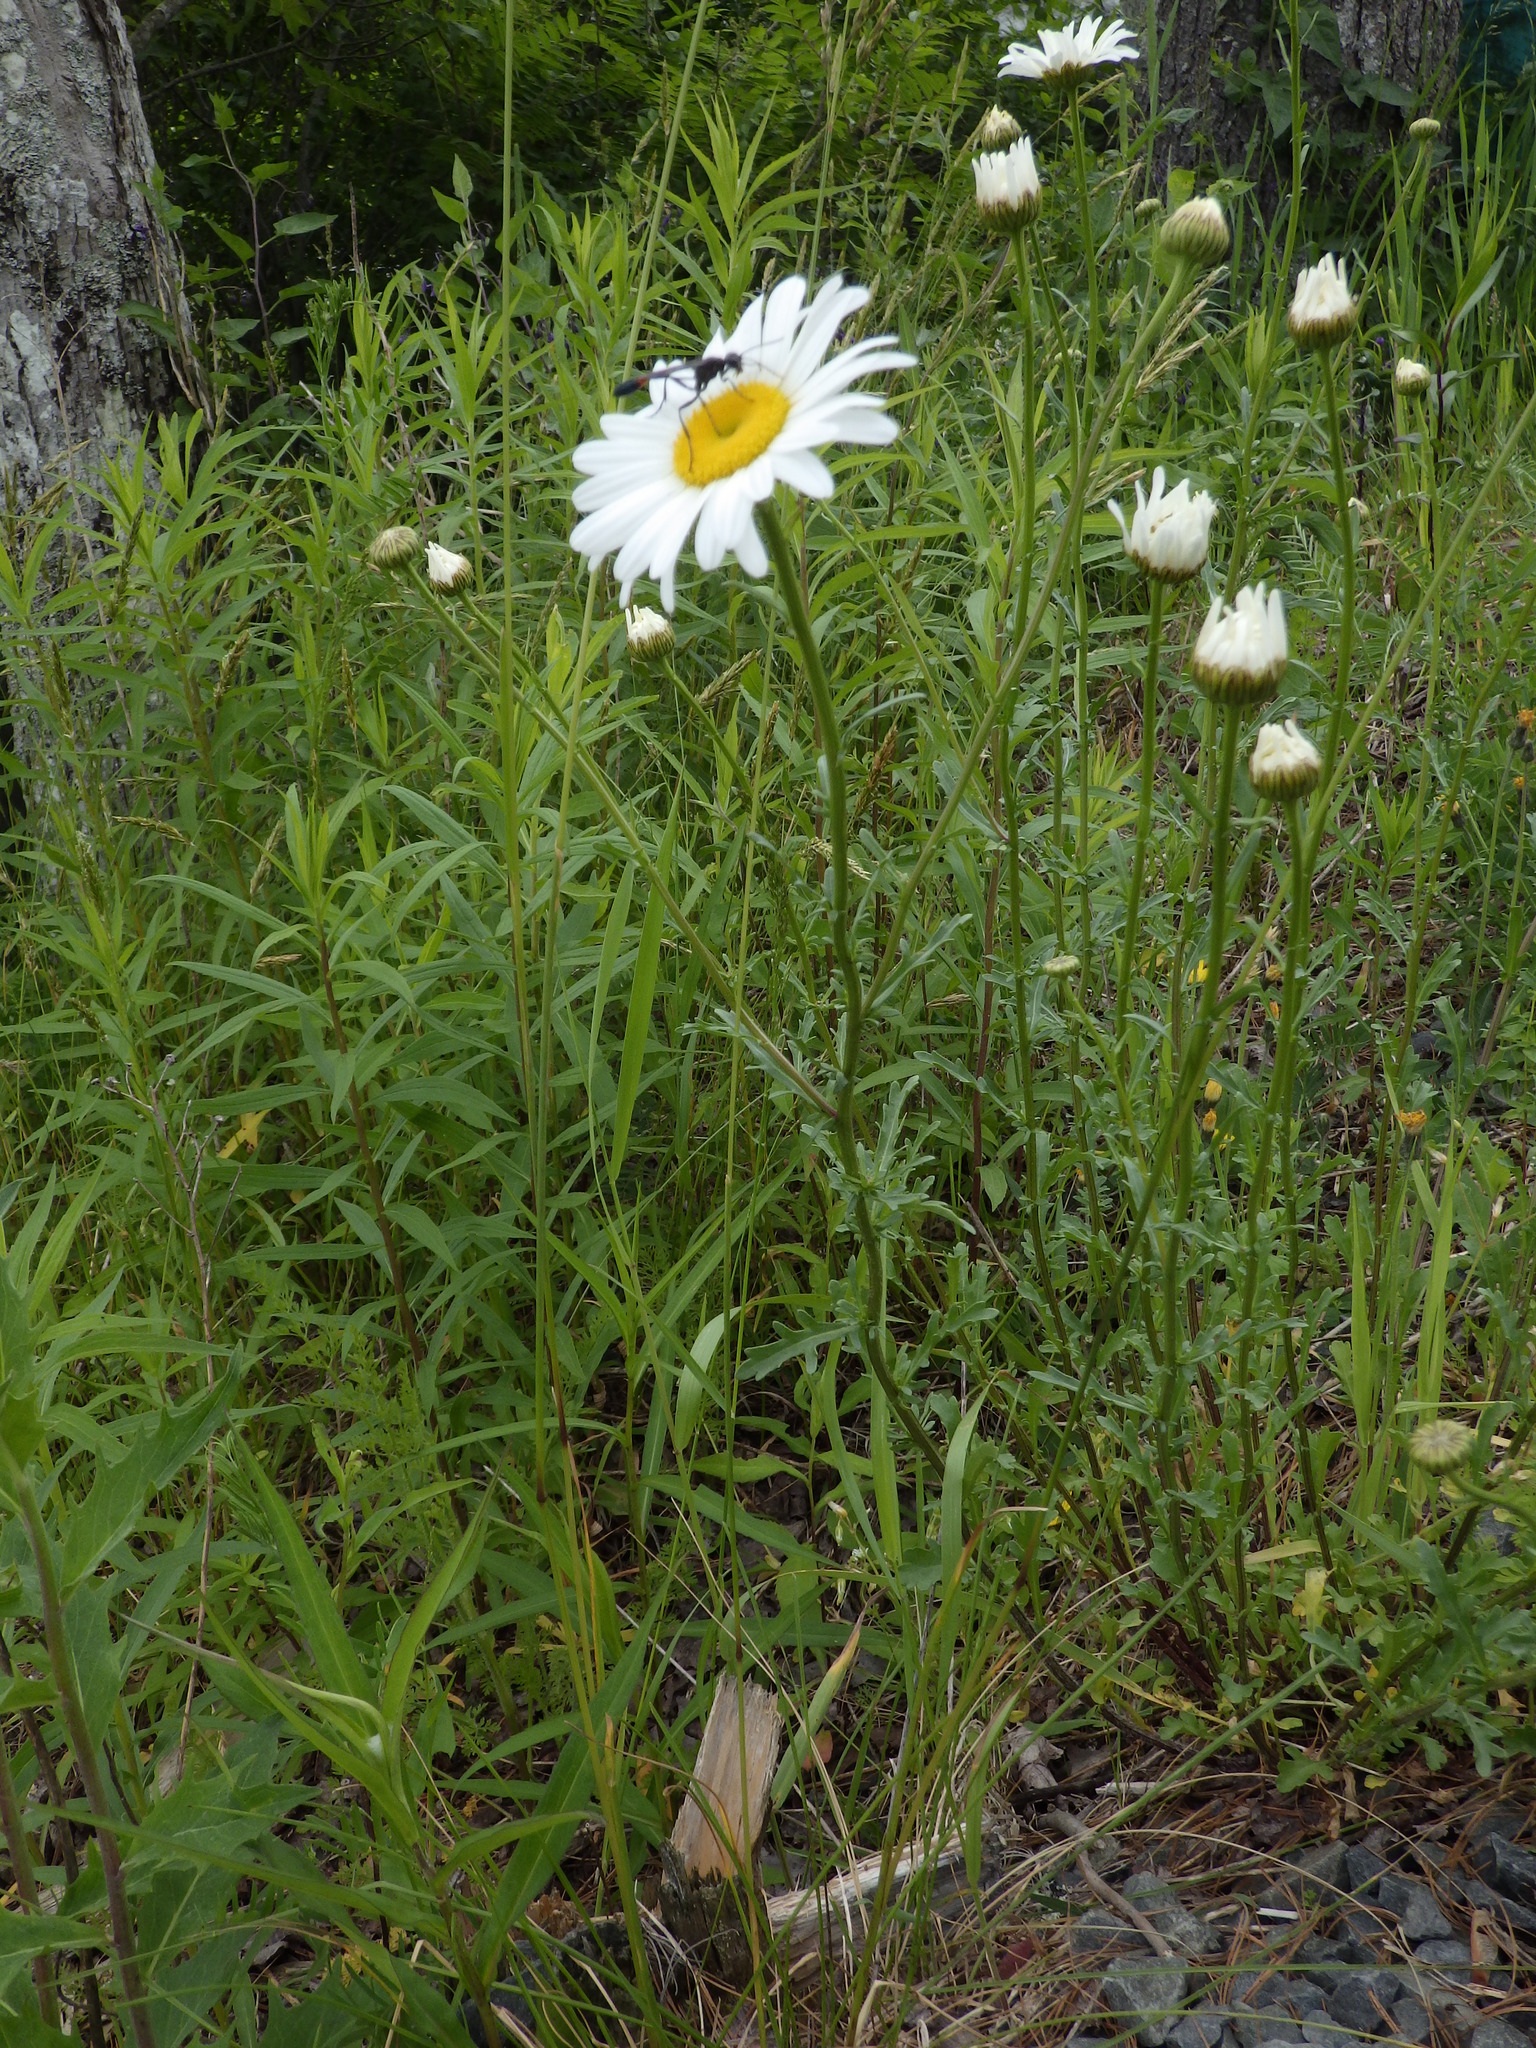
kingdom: Plantae
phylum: Tracheophyta
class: Magnoliopsida
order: Asterales
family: Asteraceae
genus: Leucanthemum
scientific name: Leucanthemum vulgare
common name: Oxeye daisy
